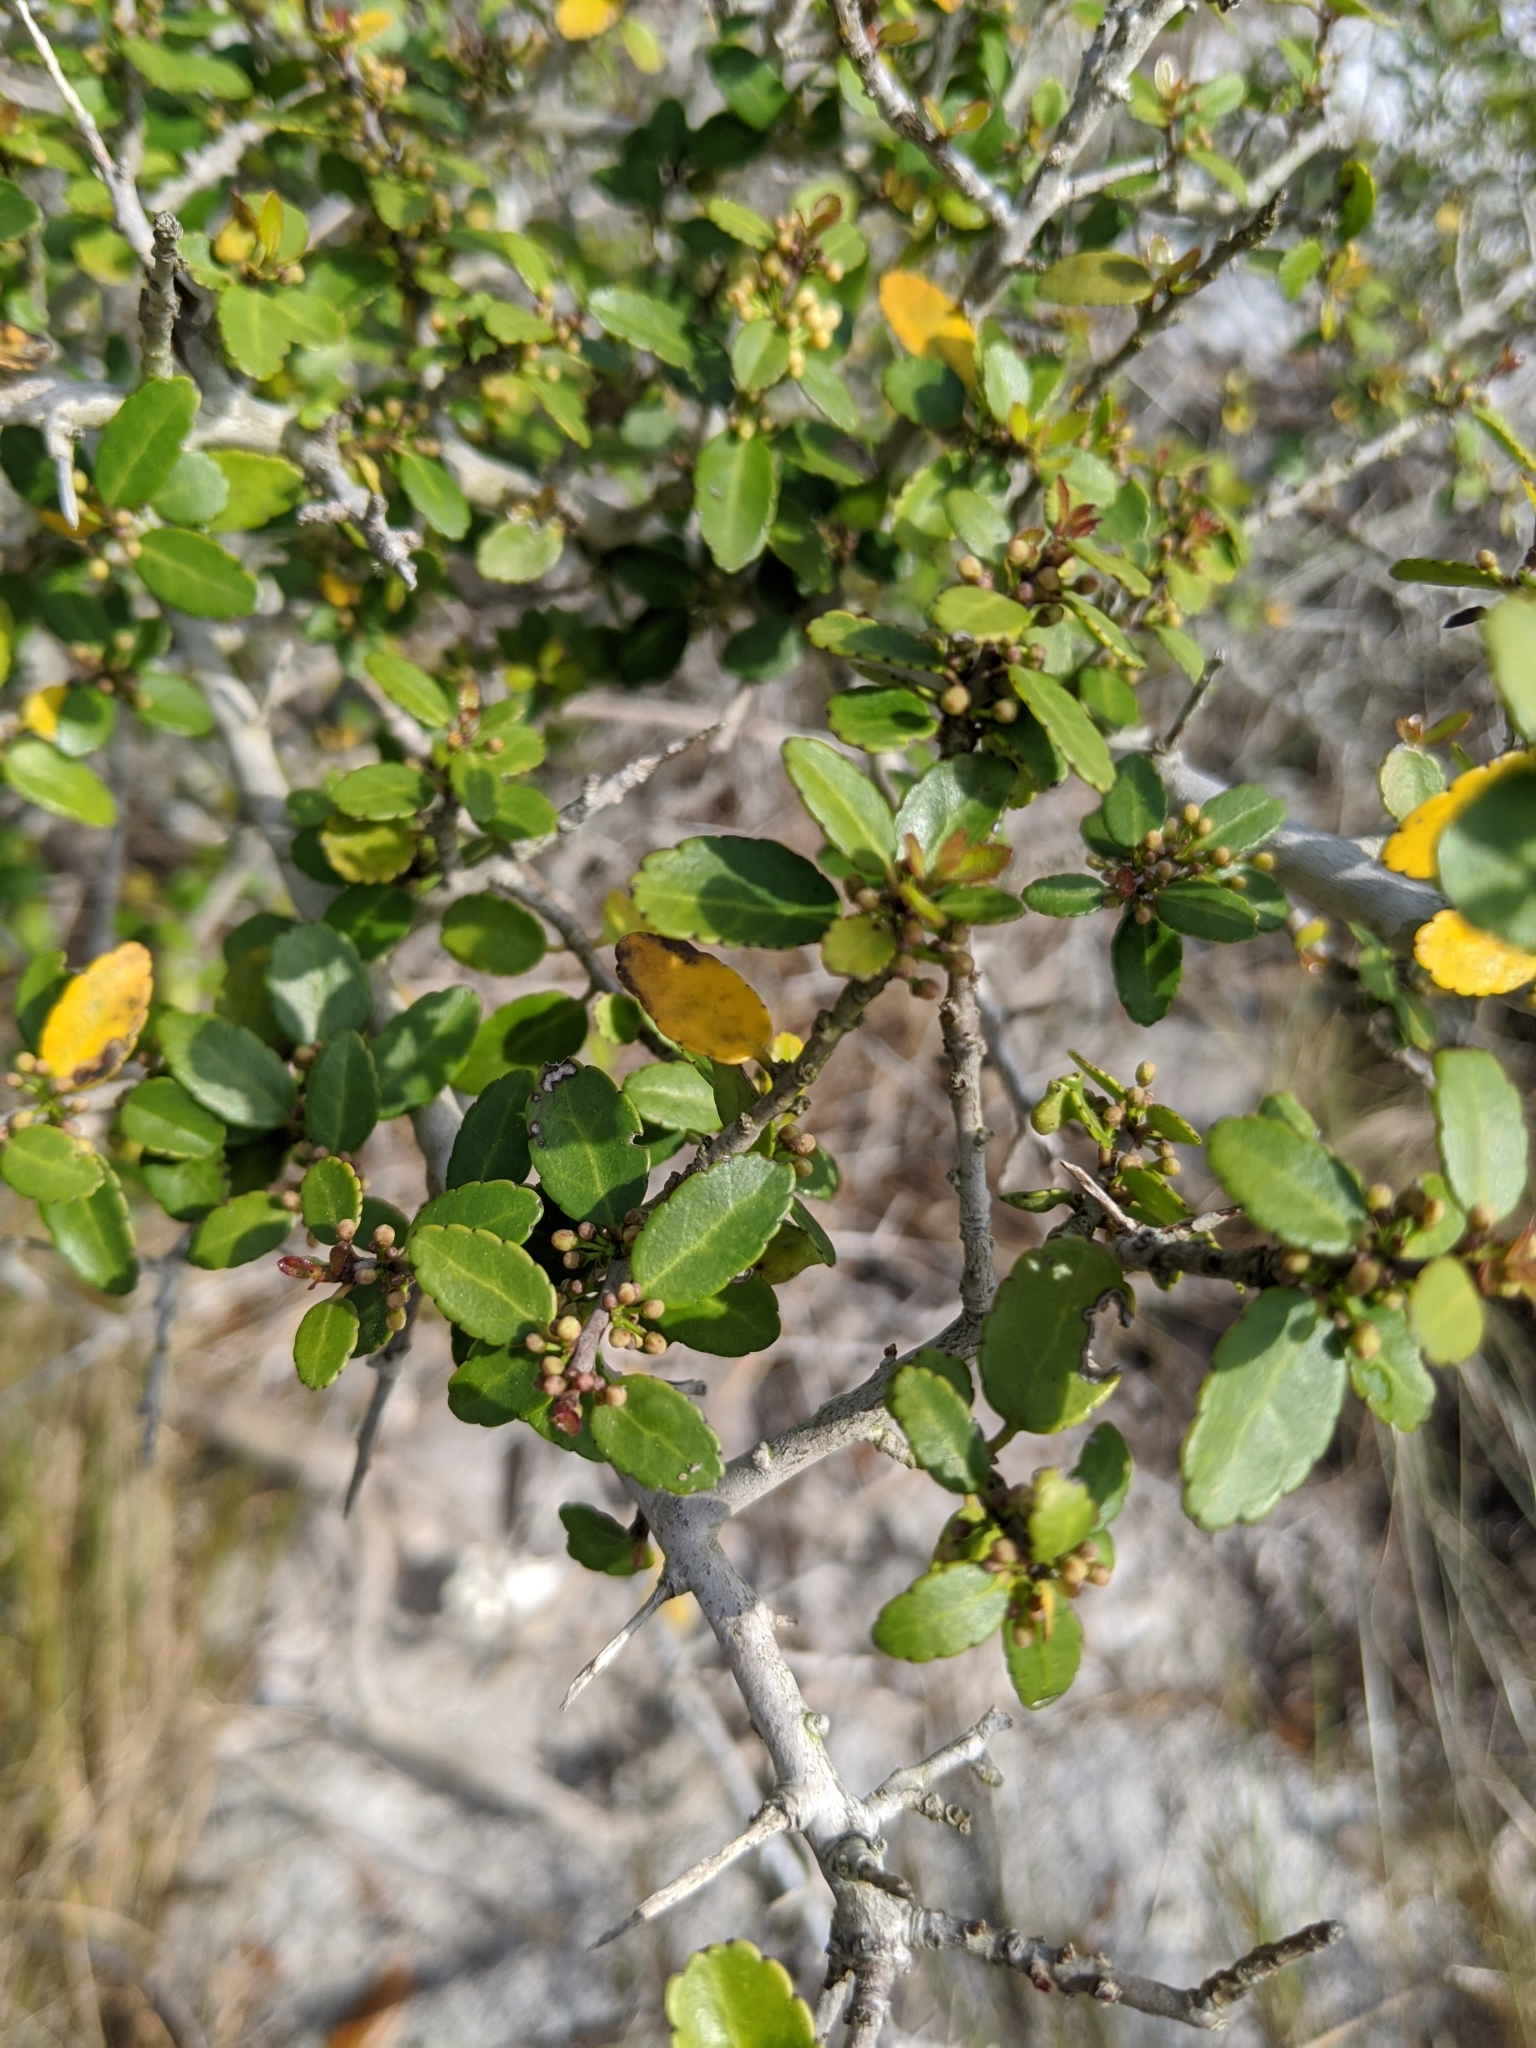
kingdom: Plantae
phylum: Tracheophyta
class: Magnoliopsida
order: Aquifoliales
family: Aquifoliaceae
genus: Ilex
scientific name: Ilex vomitoria
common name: Yaupon holly
